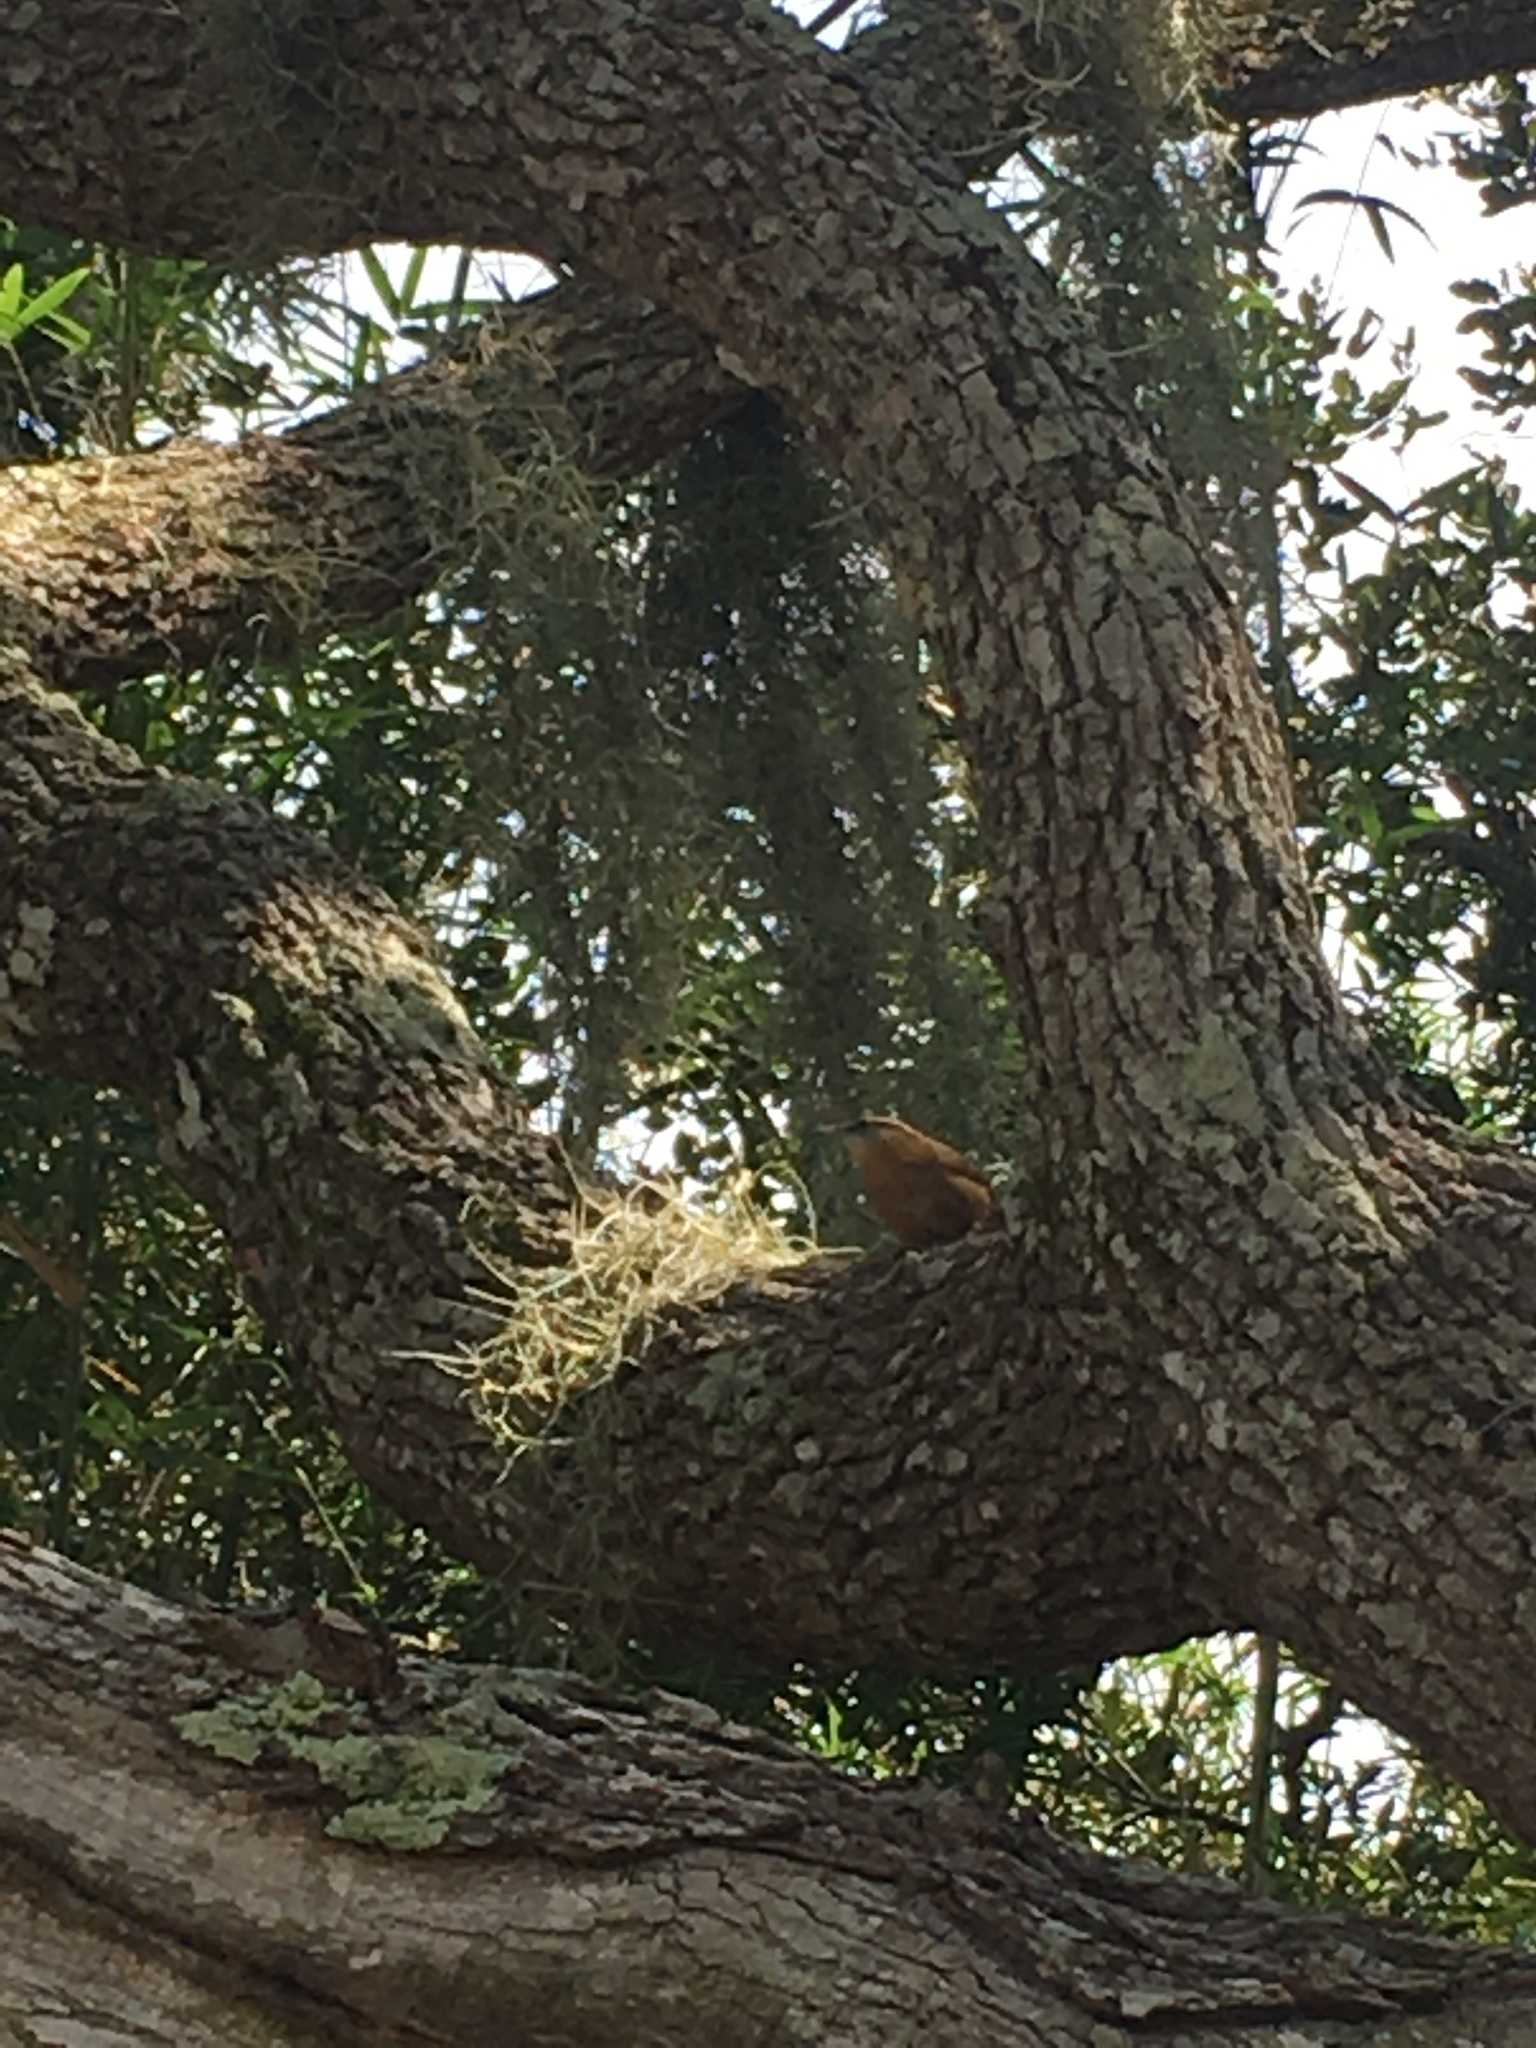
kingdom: Animalia
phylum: Chordata
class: Aves
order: Passeriformes
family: Troglodytidae
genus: Thryothorus
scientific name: Thryothorus ludovicianus
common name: Carolina wren
